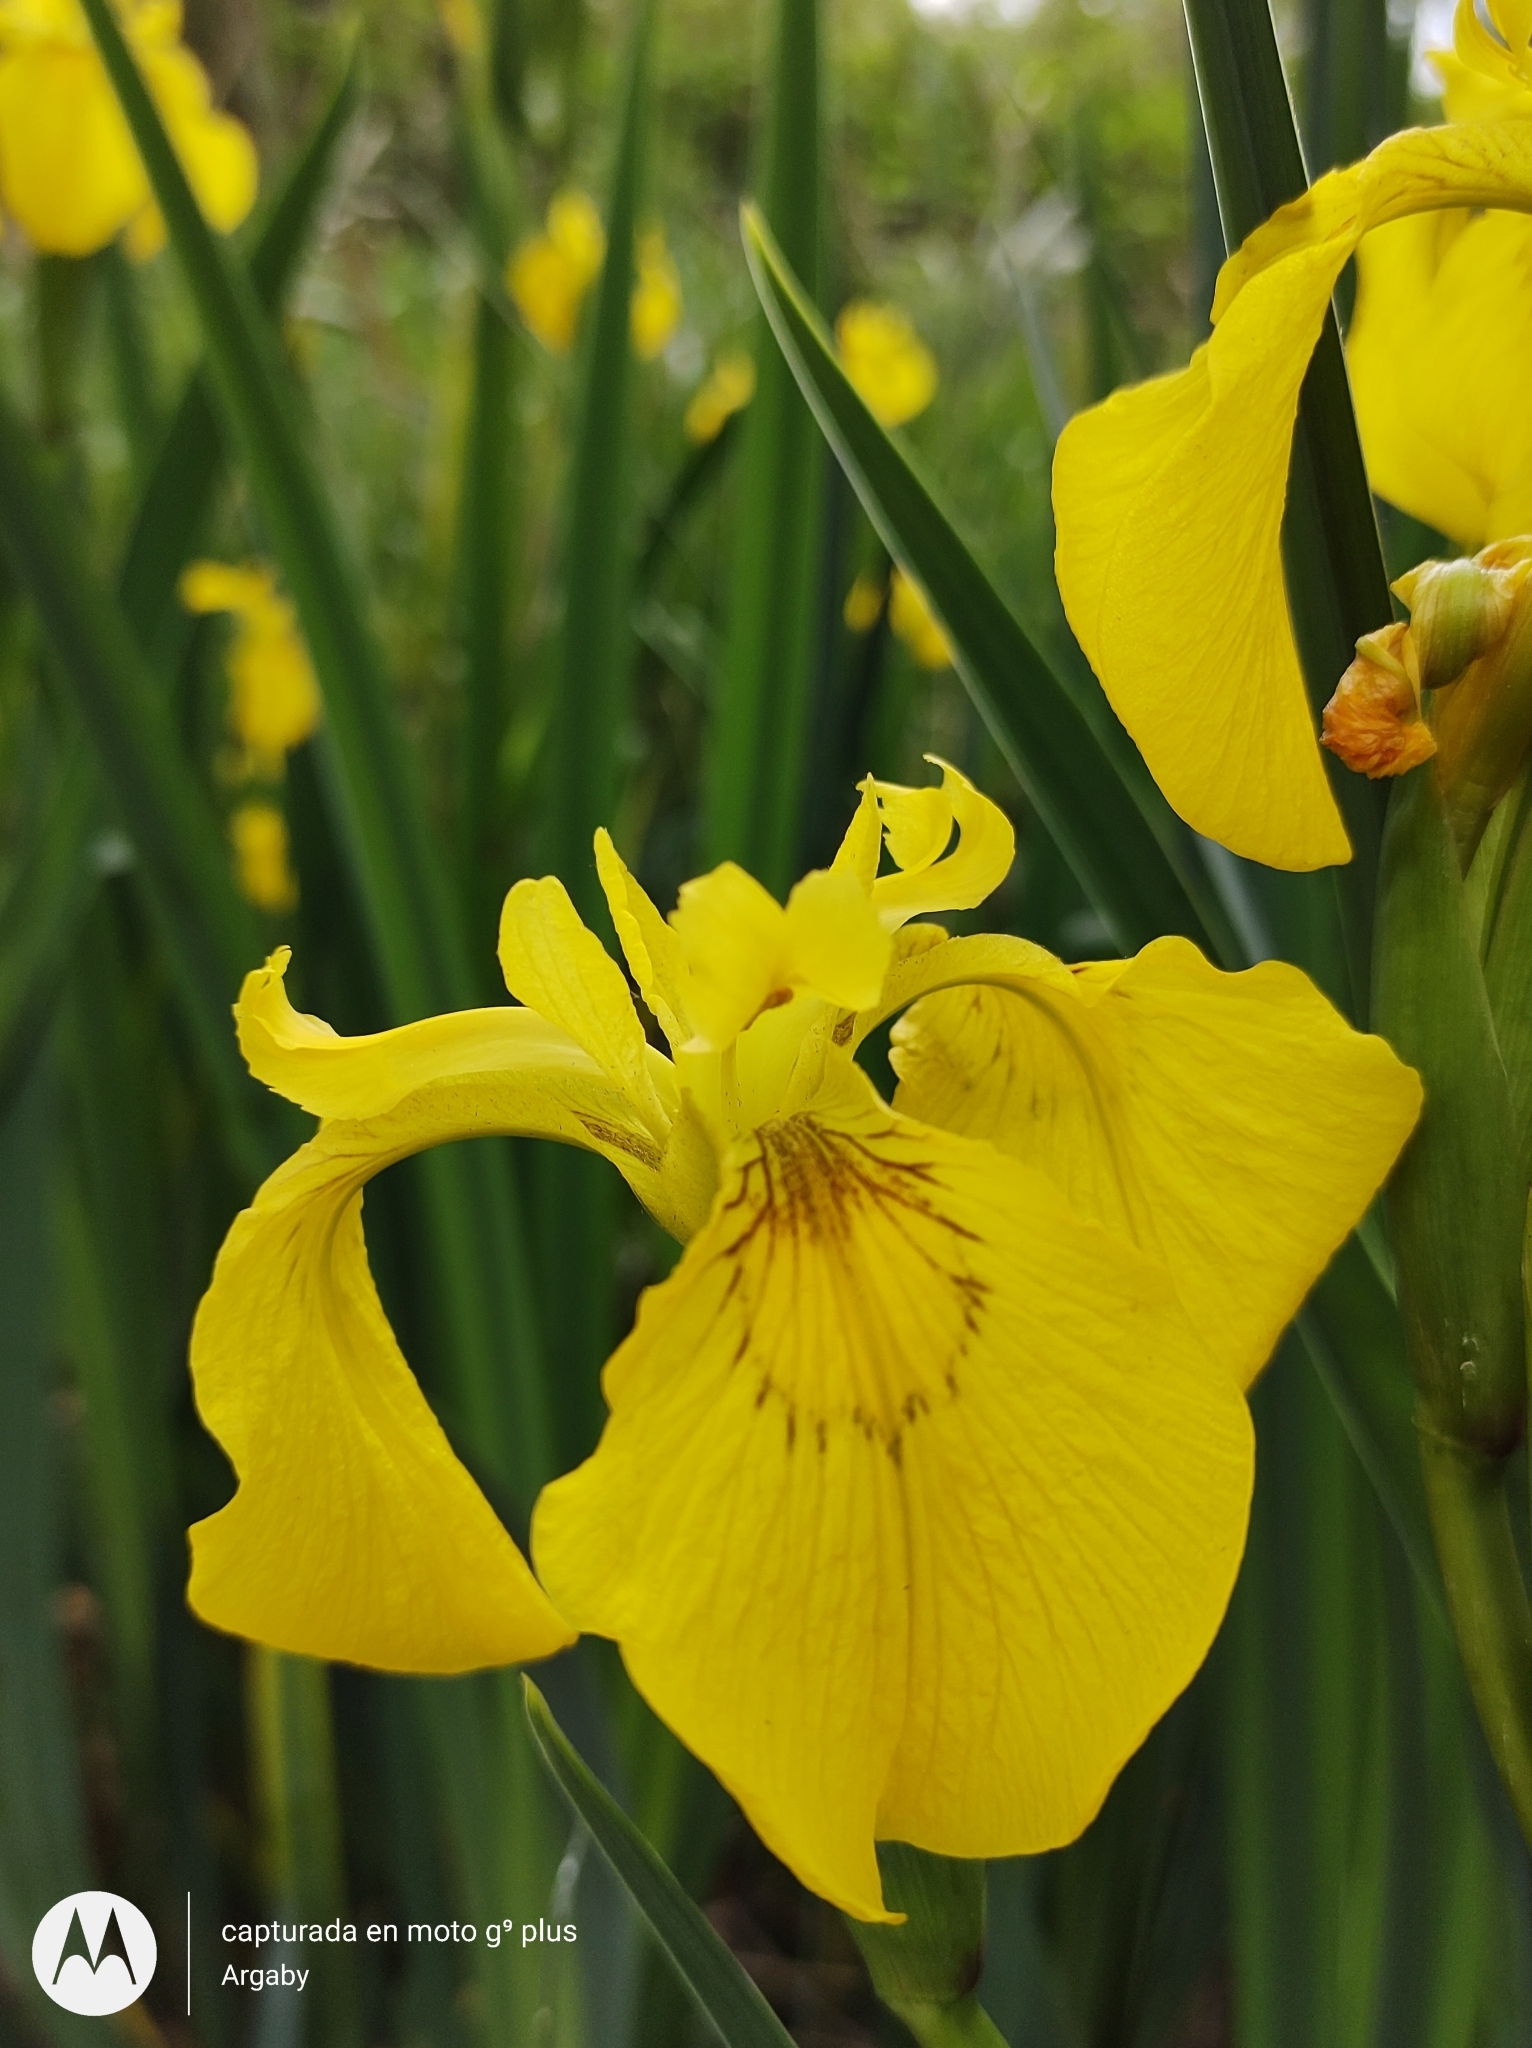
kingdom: Plantae
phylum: Tracheophyta
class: Liliopsida
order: Asparagales
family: Iridaceae
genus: Iris
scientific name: Iris pseudacorus
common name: Yellow flag
